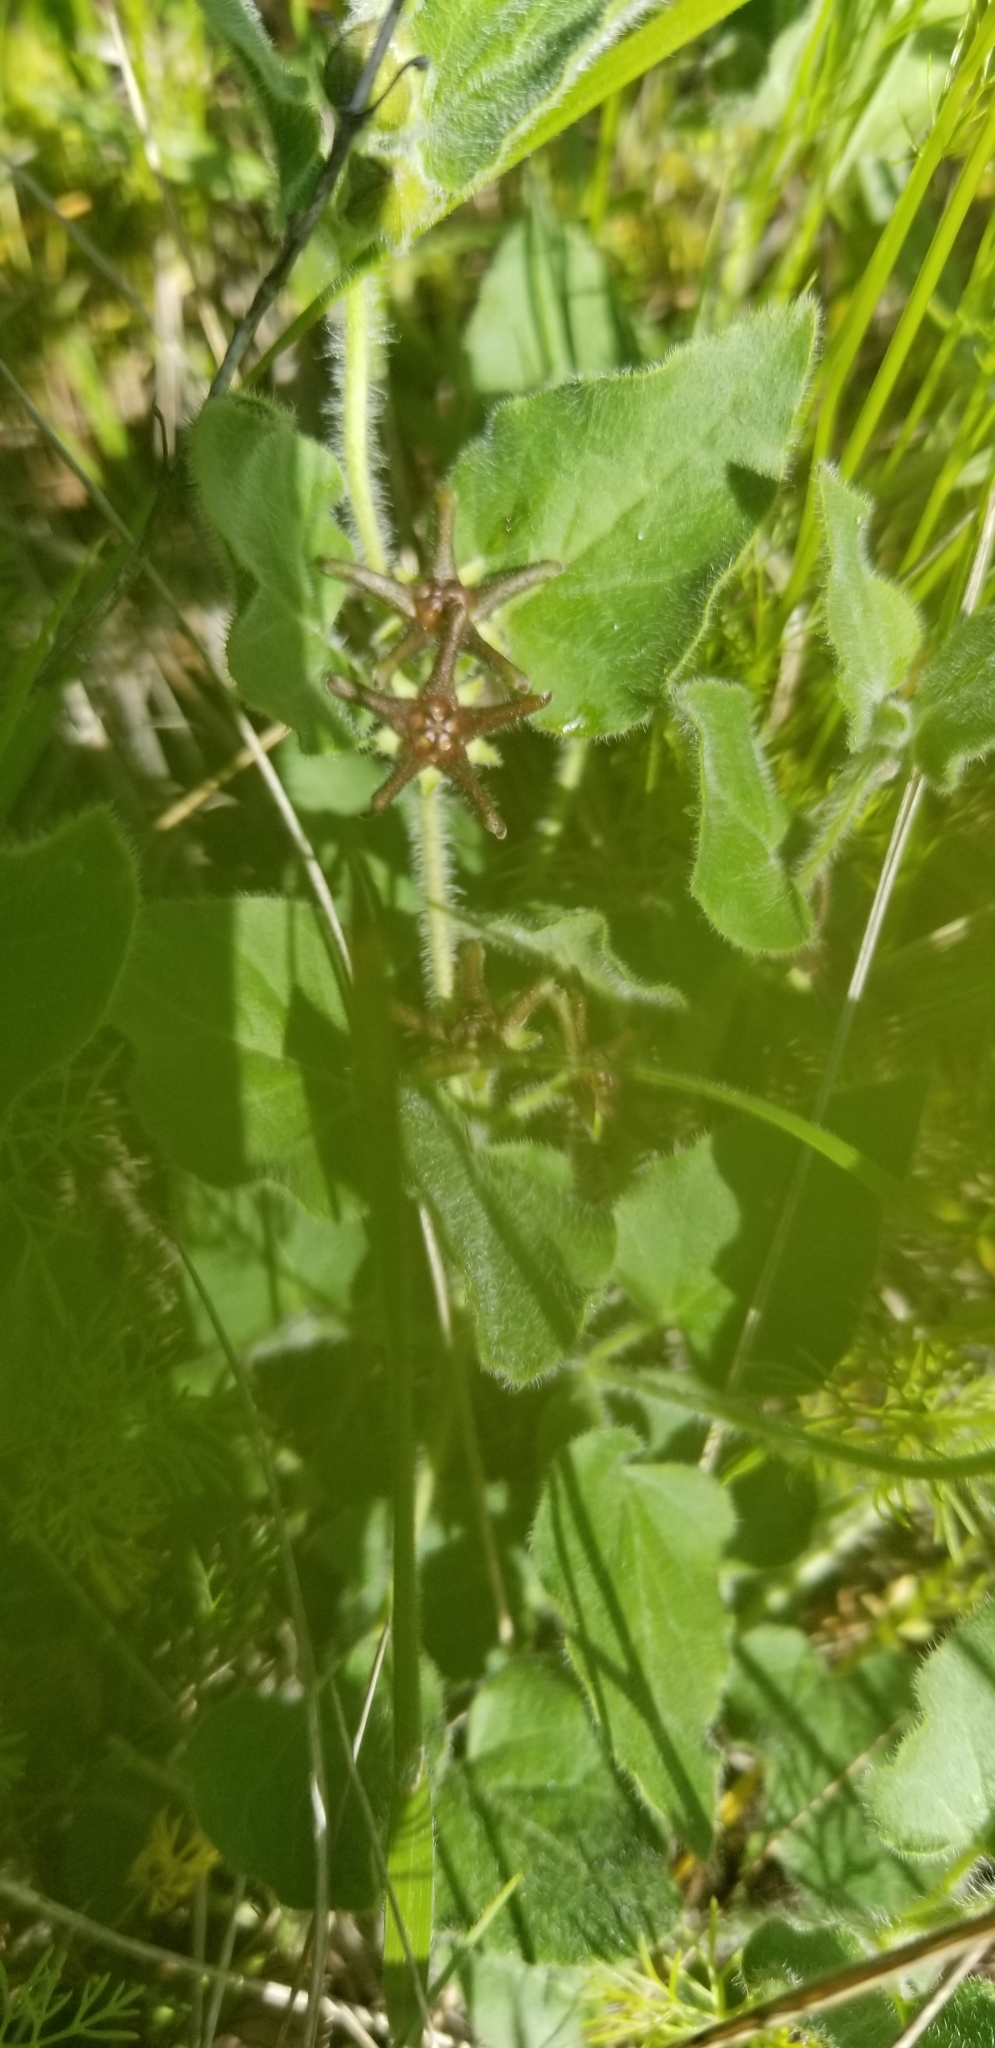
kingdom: Plantae
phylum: Tracheophyta
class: Magnoliopsida
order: Gentianales
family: Apocynaceae
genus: Chthamalia
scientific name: Chthamalia biflora
